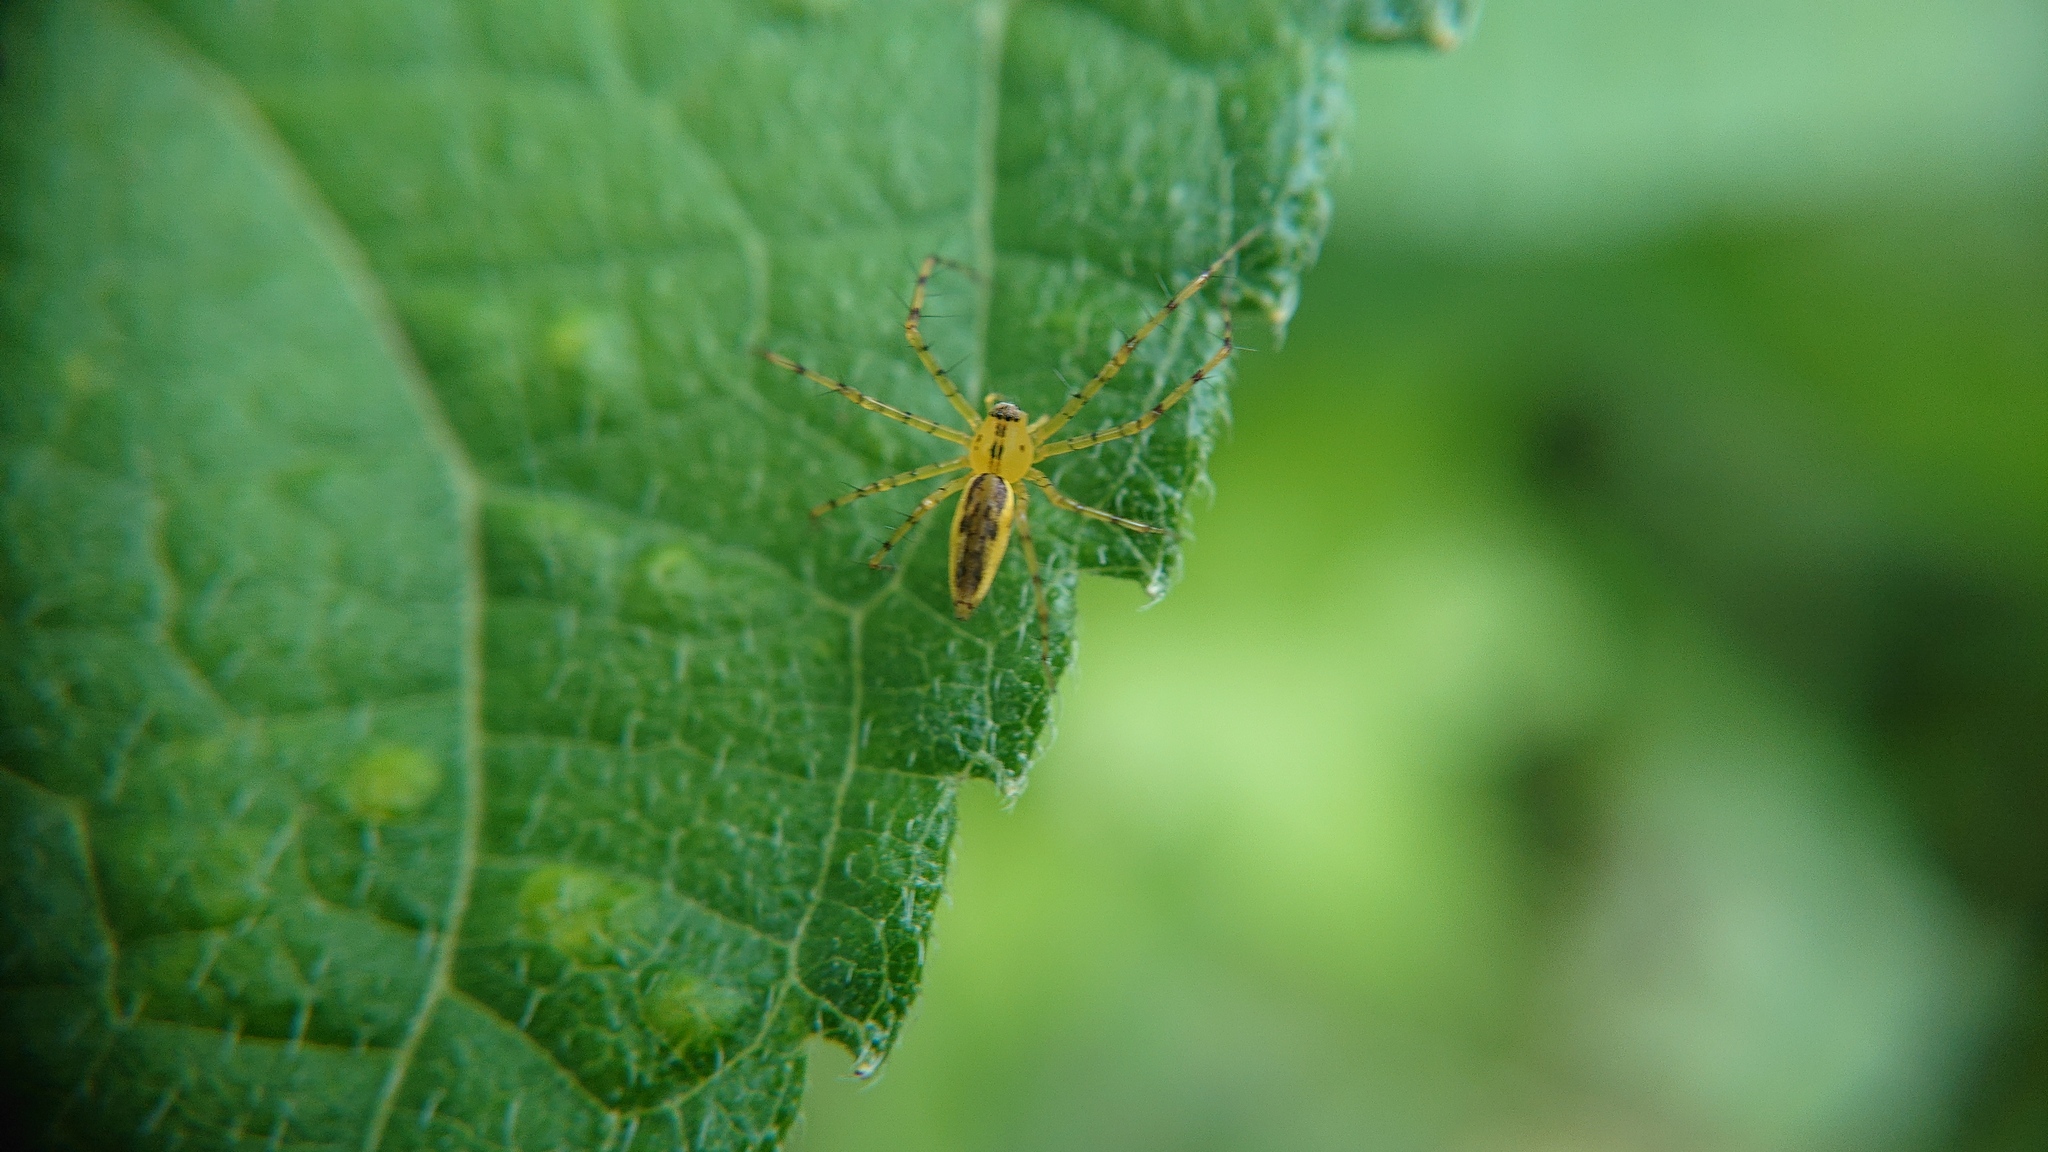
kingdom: Animalia
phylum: Arthropoda
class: Arachnida
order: Araneae
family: Oxyopidae
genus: Peucetia
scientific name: Peucetia rubrolineata
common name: Lynx spiders
